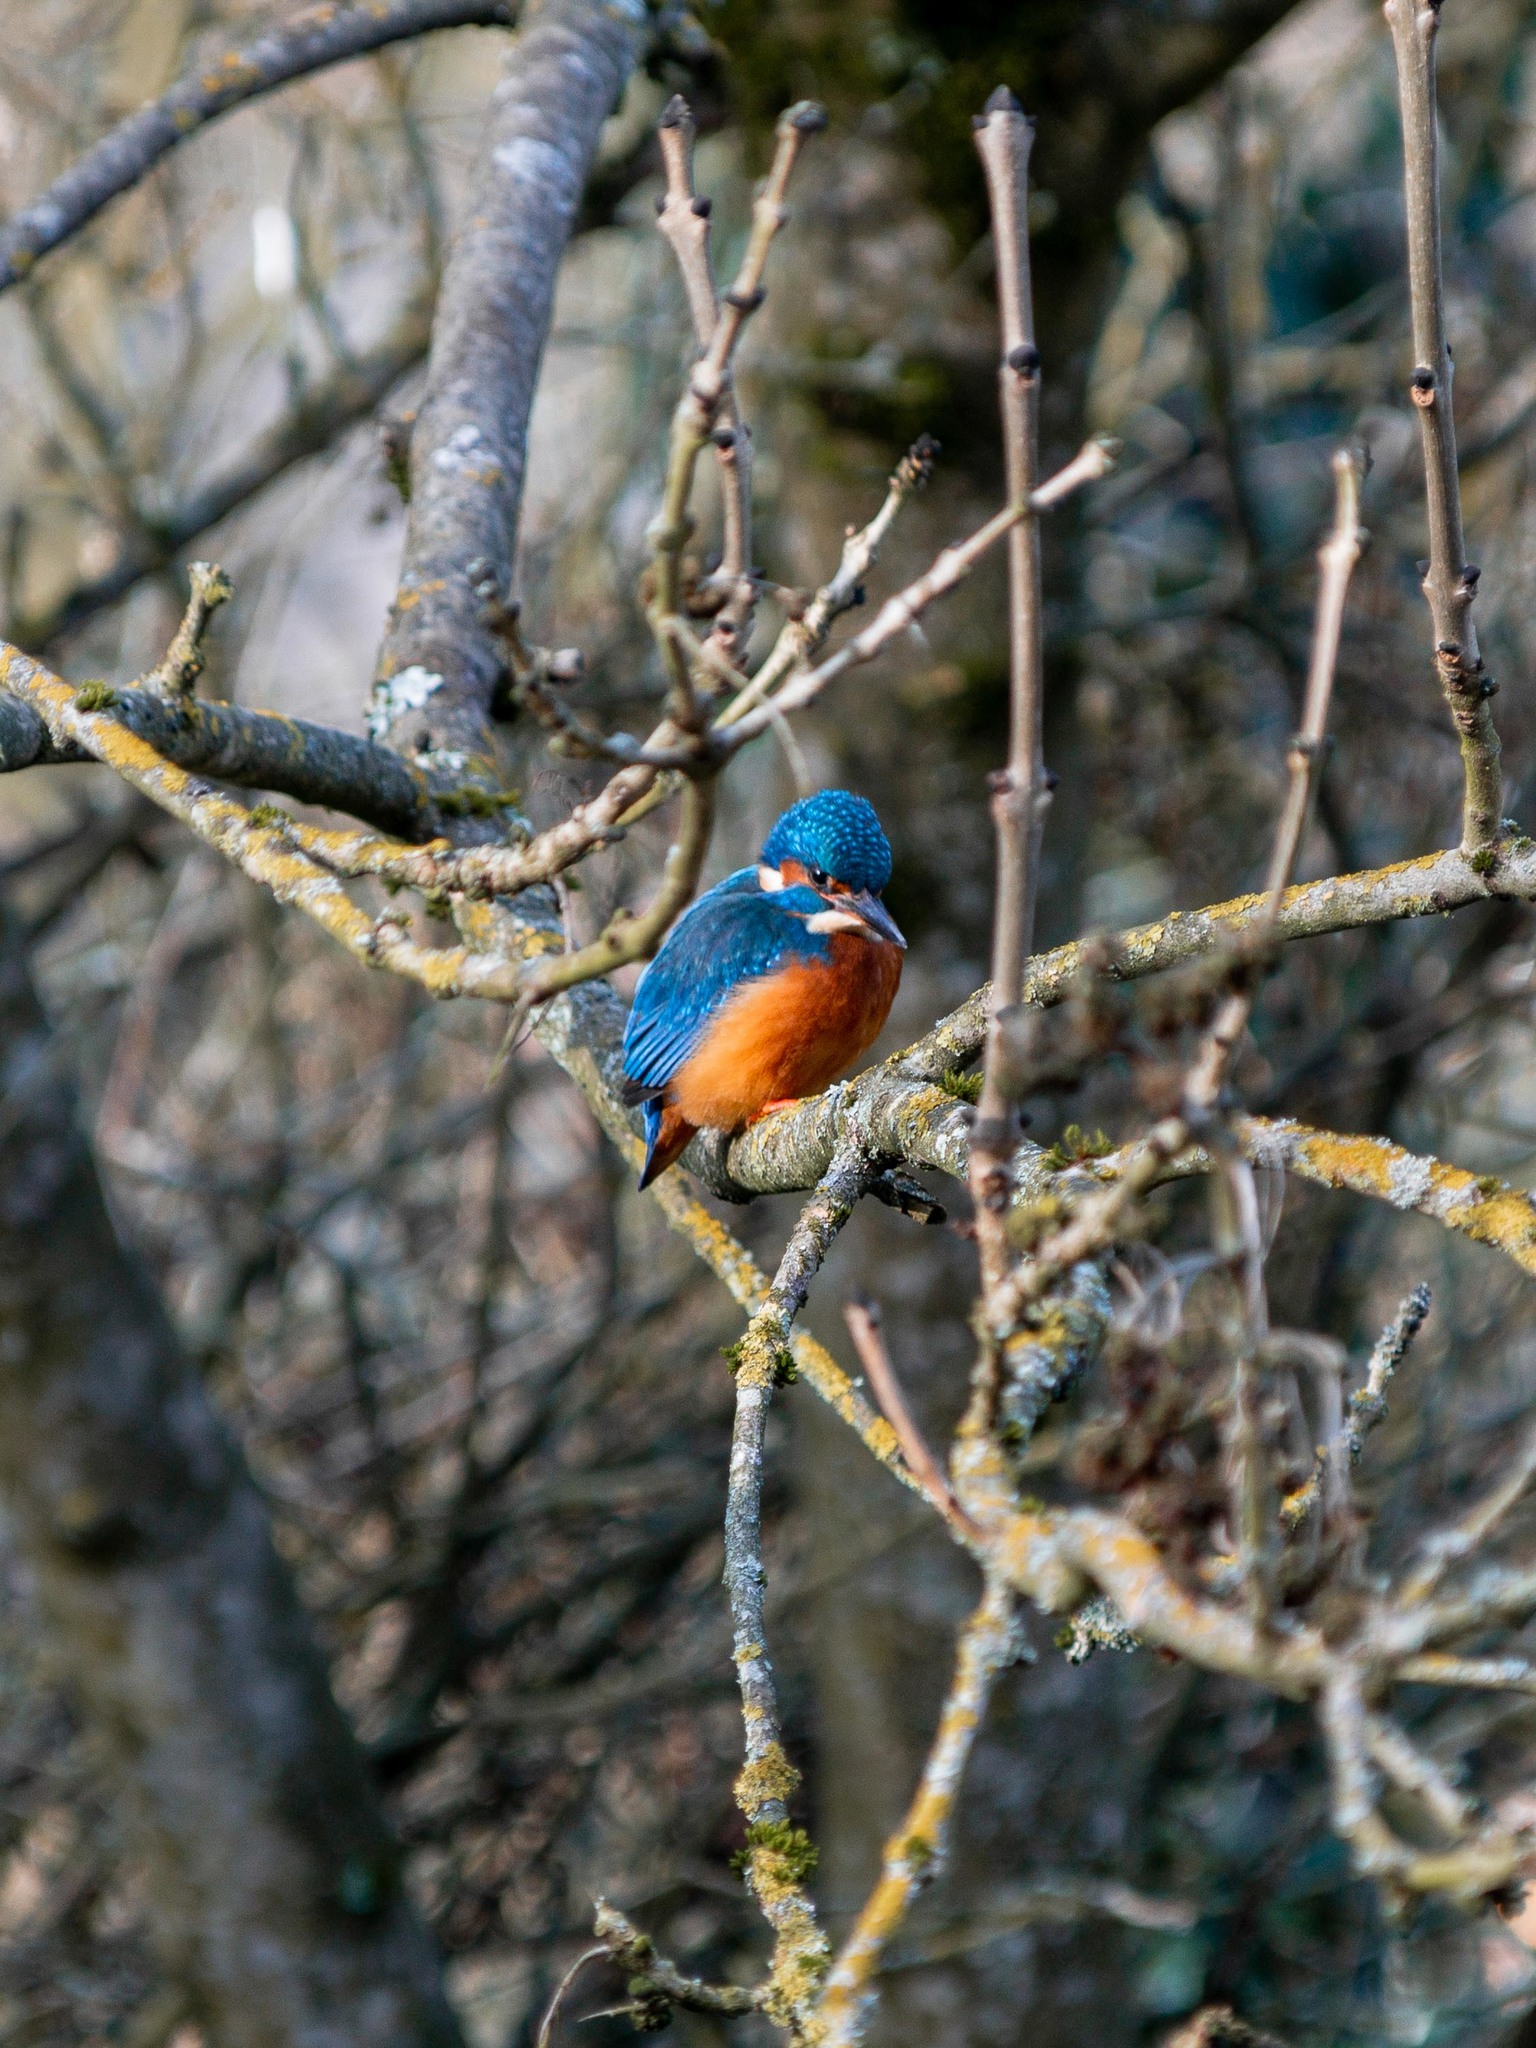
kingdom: Animalia
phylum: Chordata
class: Aves
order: Coraciiformes
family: Alcedinidae
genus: Alcedo
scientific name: Alcedo atthis
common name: Common kingfisher
